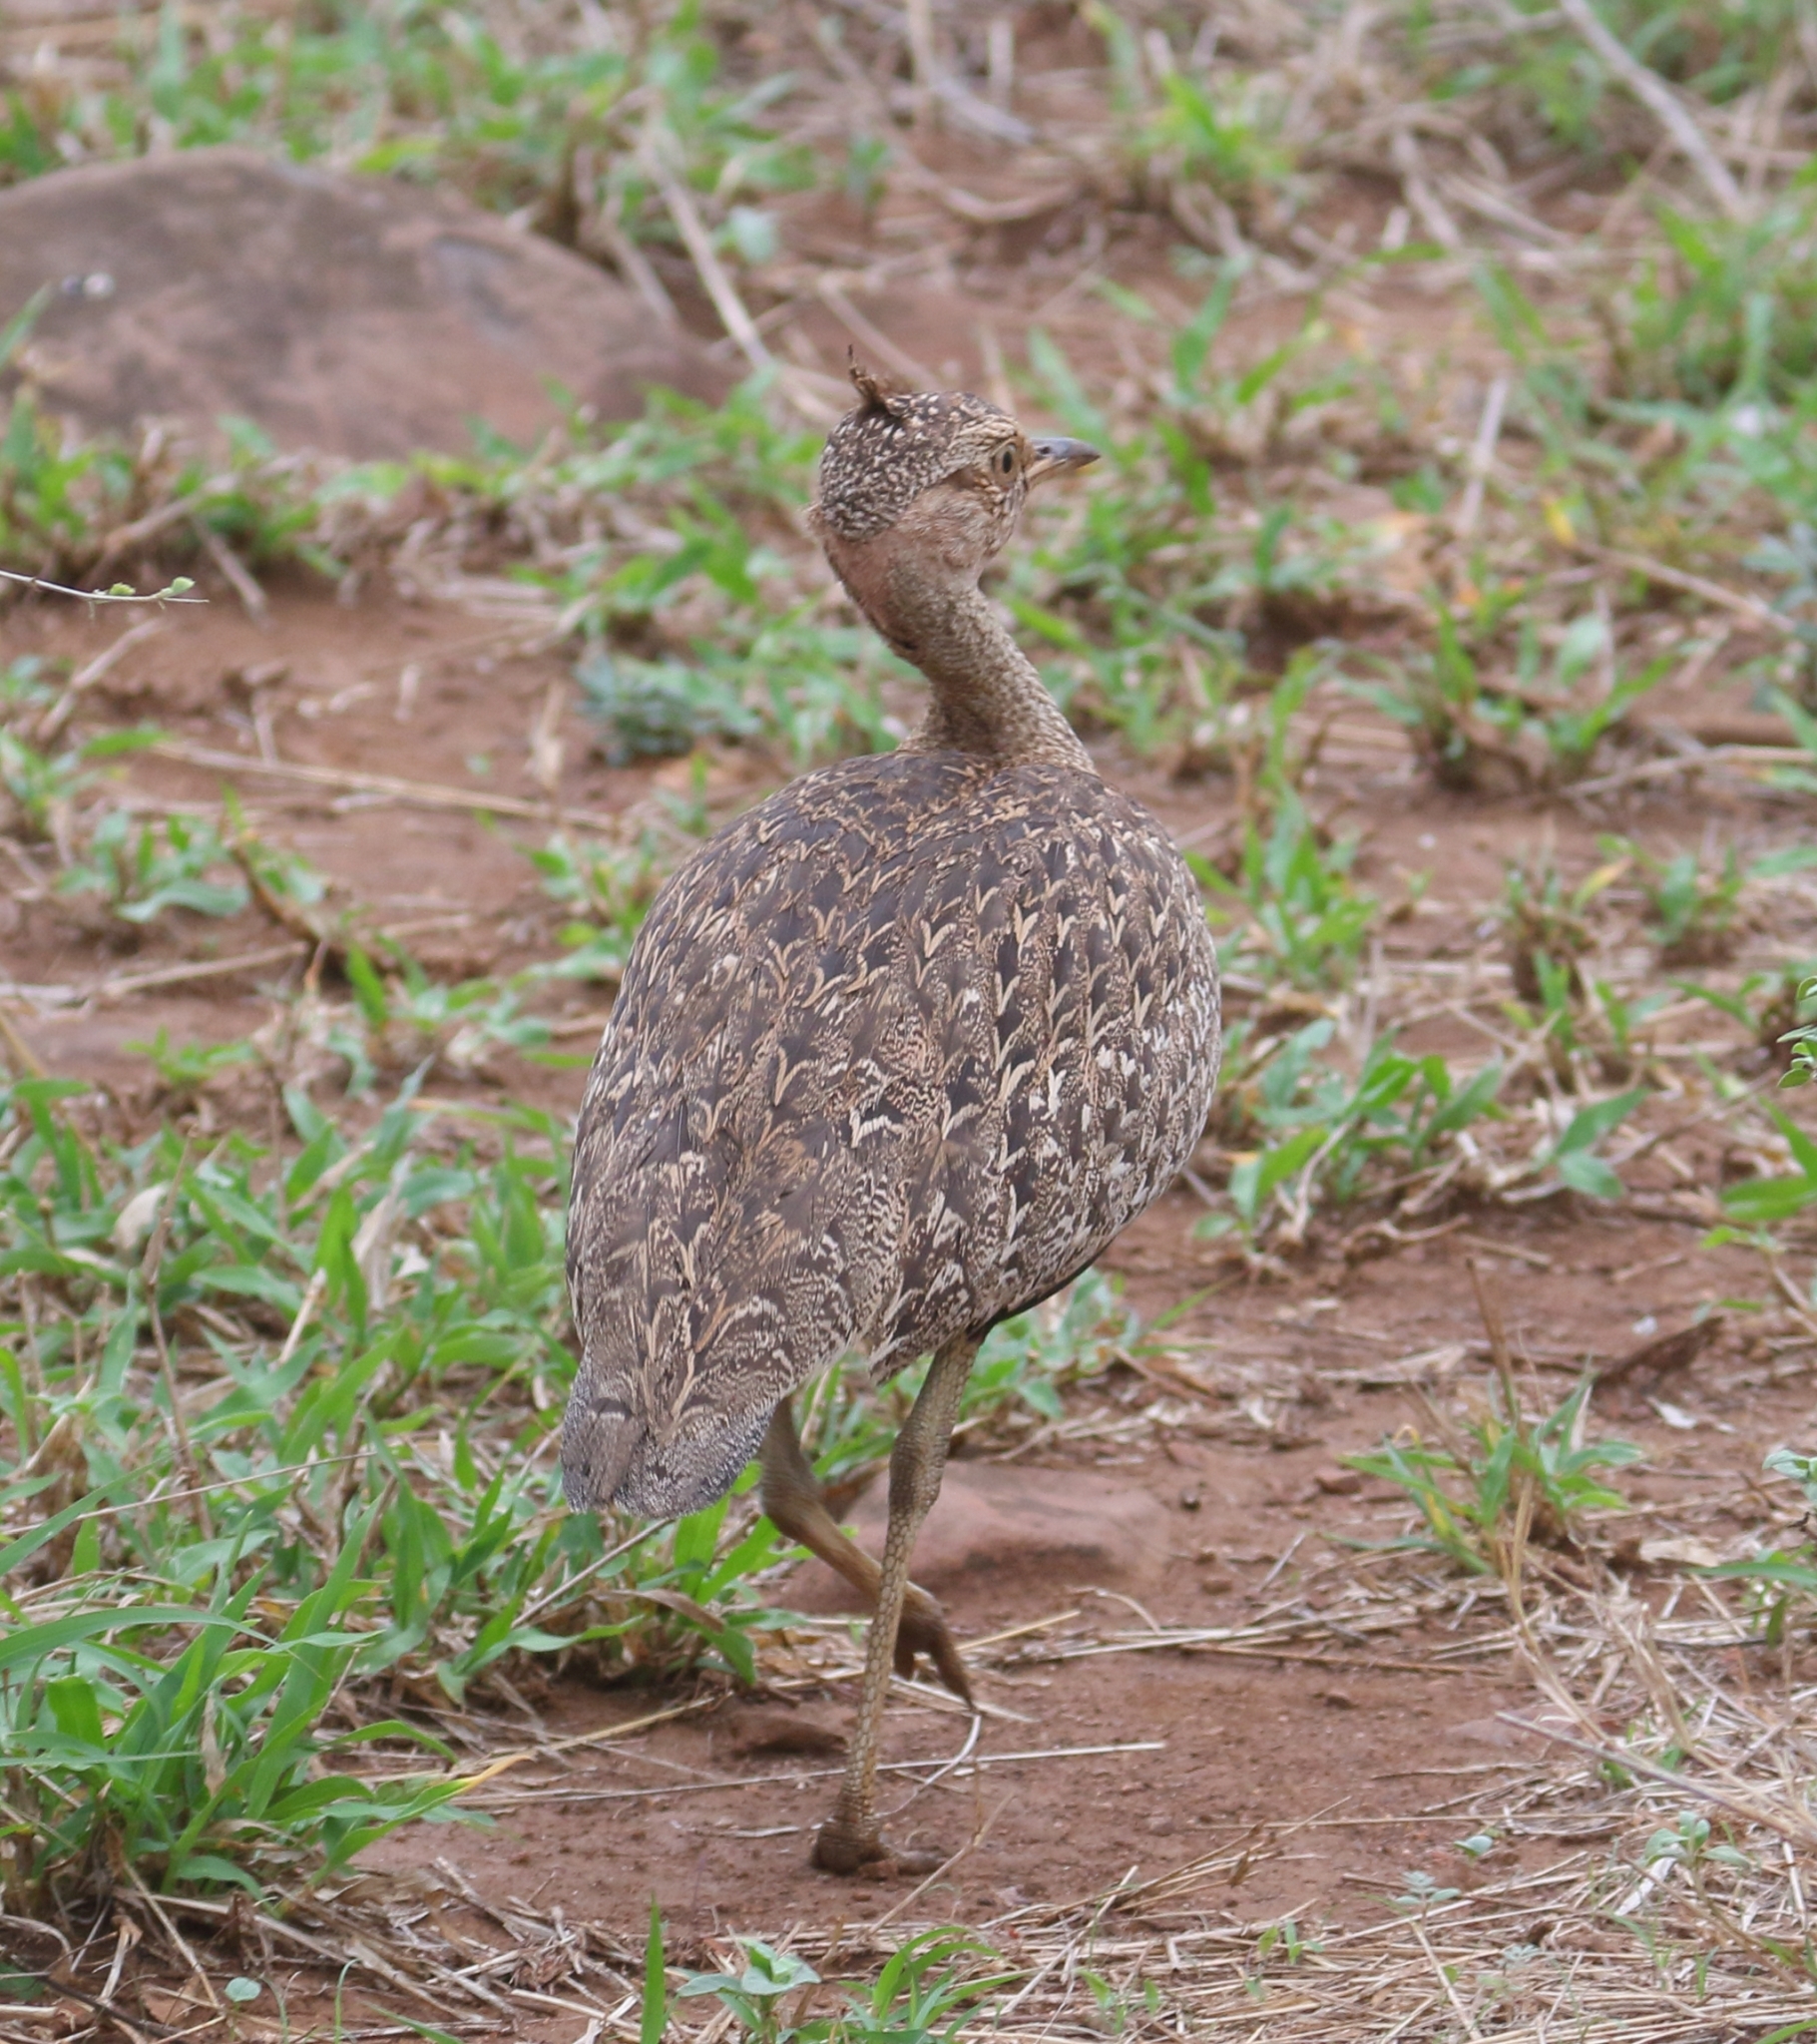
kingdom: Animalia
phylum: Chordata
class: Aves
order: Otidiformes
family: Otididae
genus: Lophotis
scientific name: Lophotis ruficrista
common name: Red-crested korhaan
